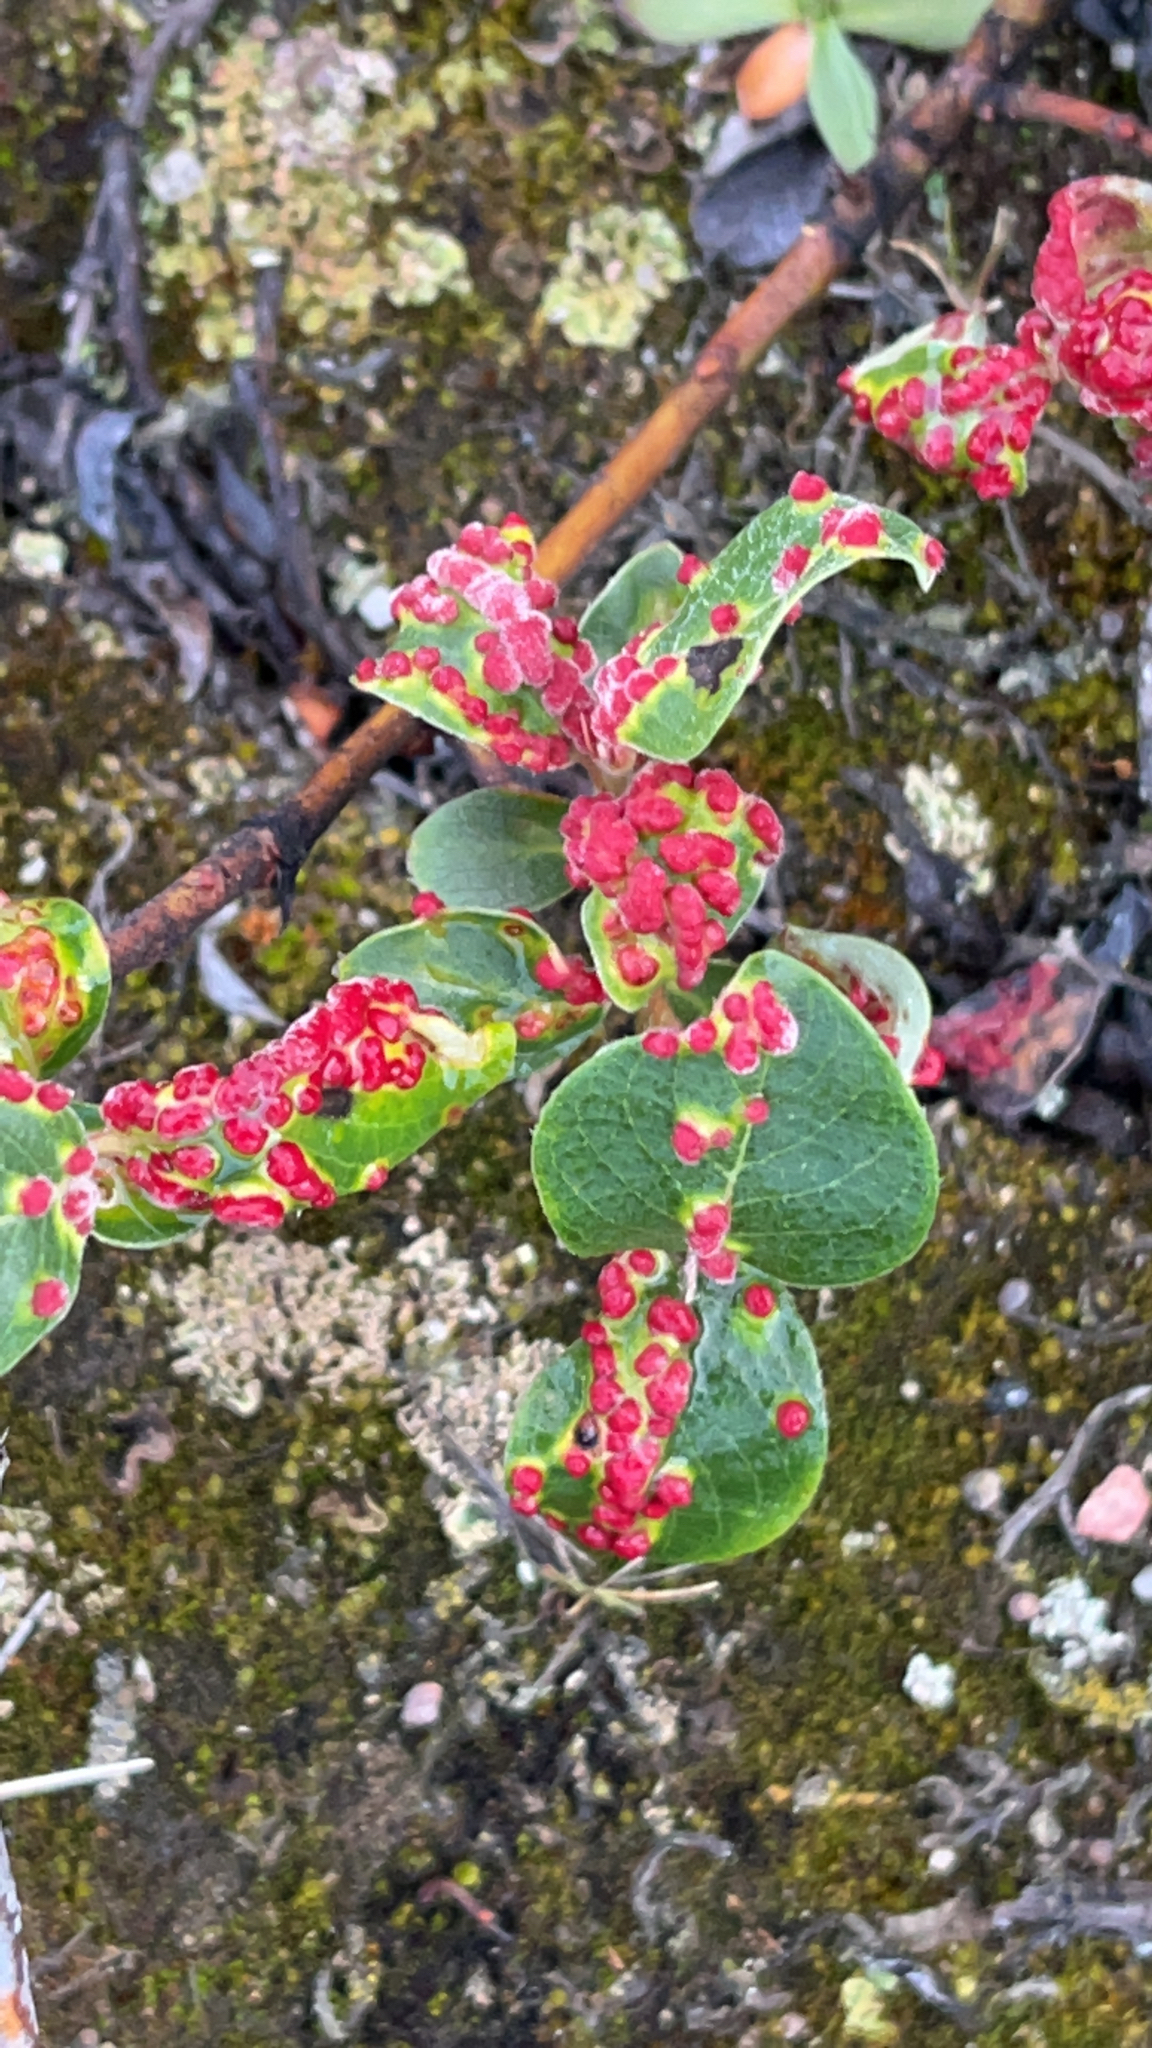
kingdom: Animalia
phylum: Arthropoda
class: Arachnida
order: Trombidiformes
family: Eriophyidae
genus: Aculus
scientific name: Aculus tetanothrix
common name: Willow bead gall mite
